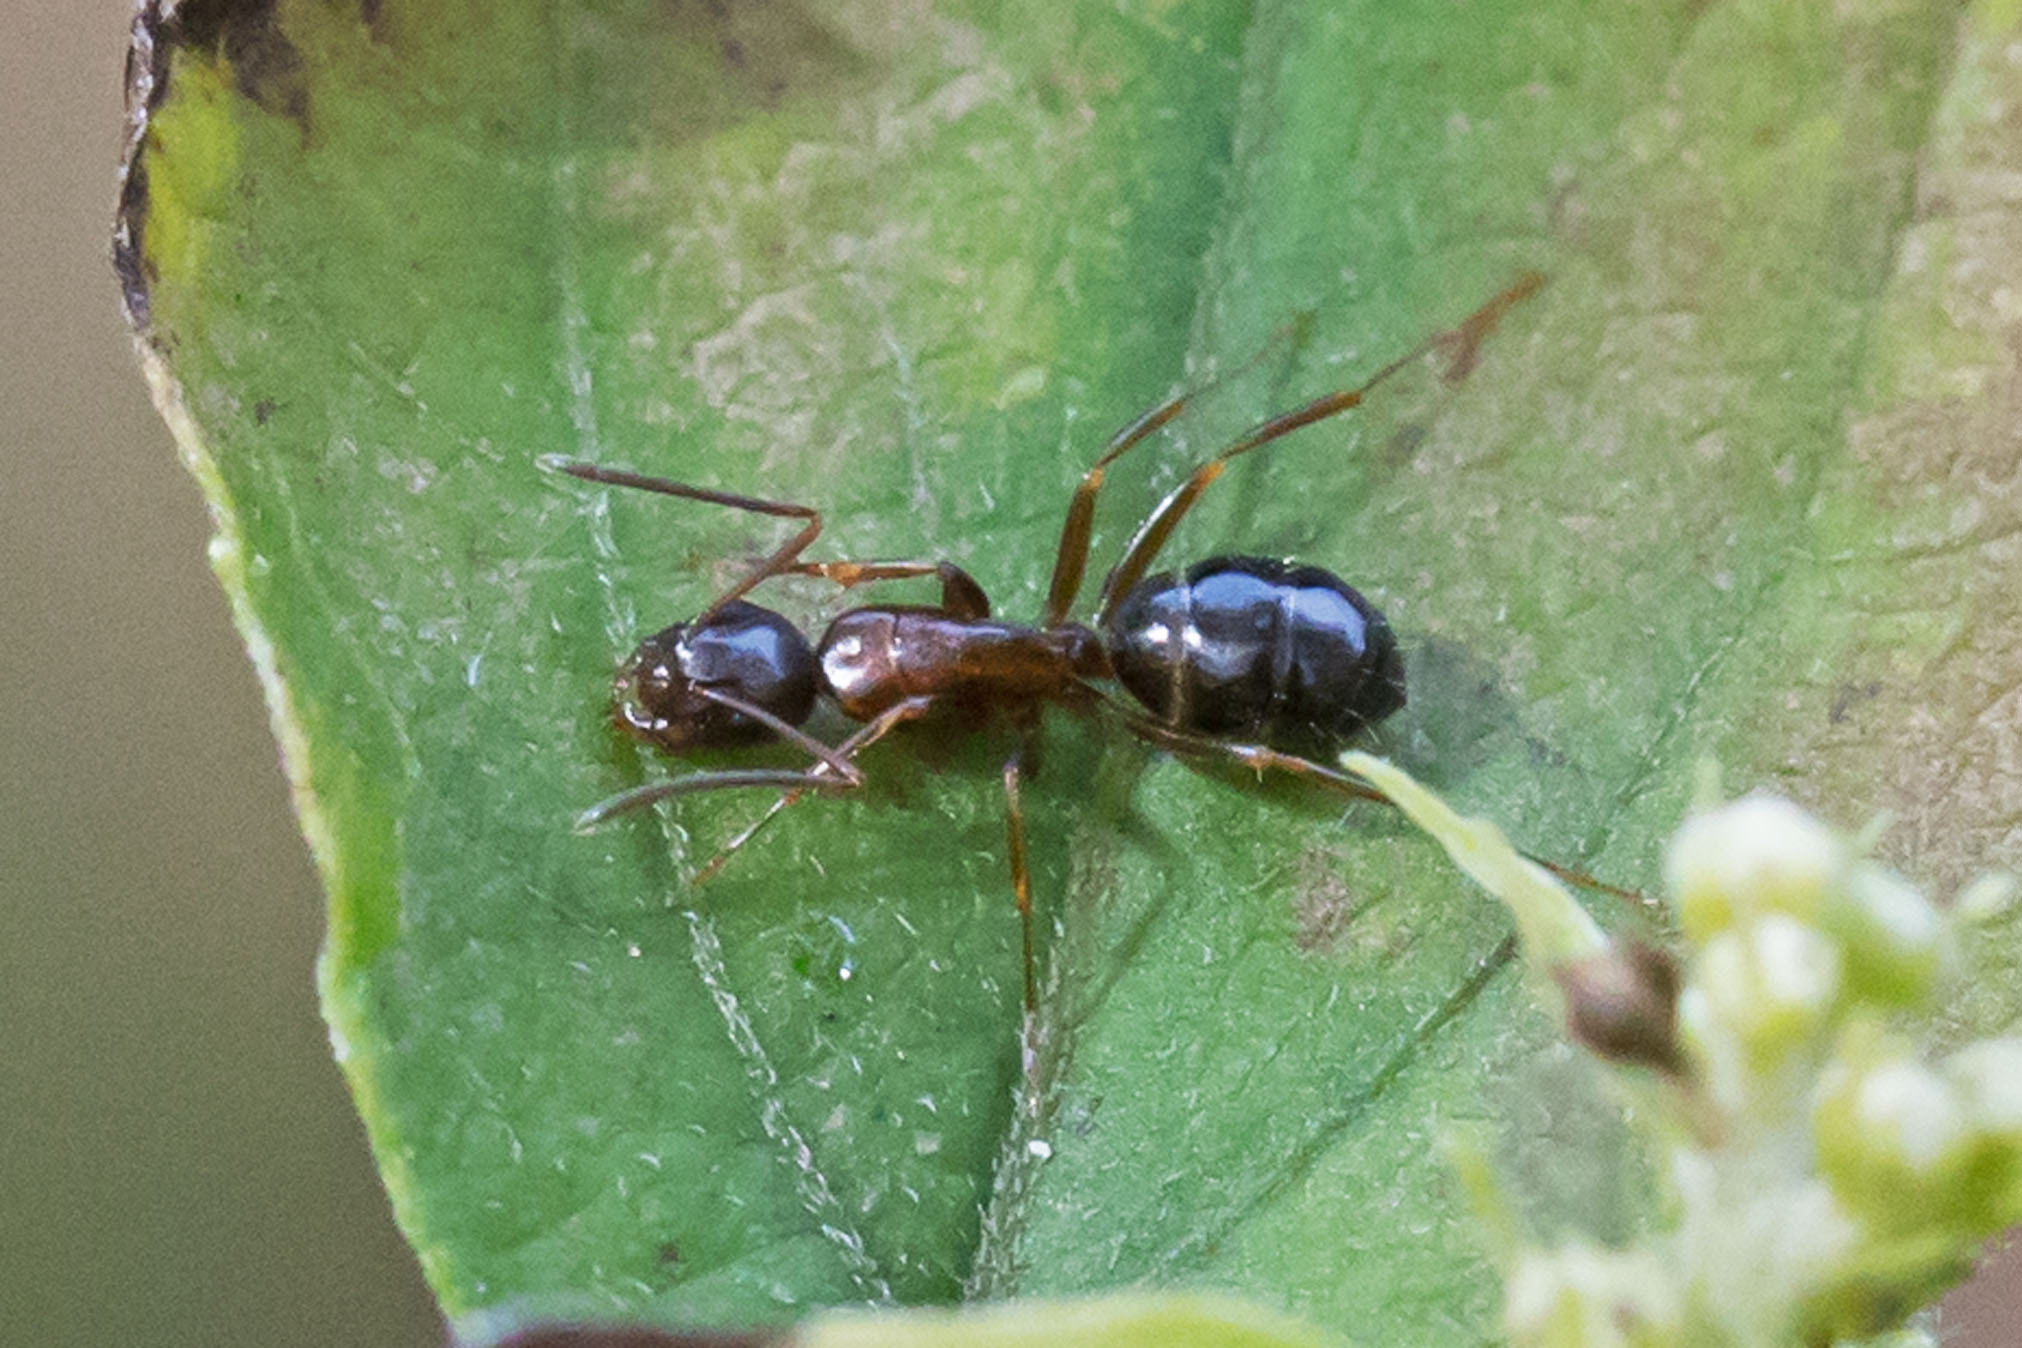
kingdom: Animalia
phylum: Arthropoda
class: Insecta
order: Hymenoptera
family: Formicidae
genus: Camponotus
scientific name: Camponotus nearcticus
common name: Smaller carpenter ant
